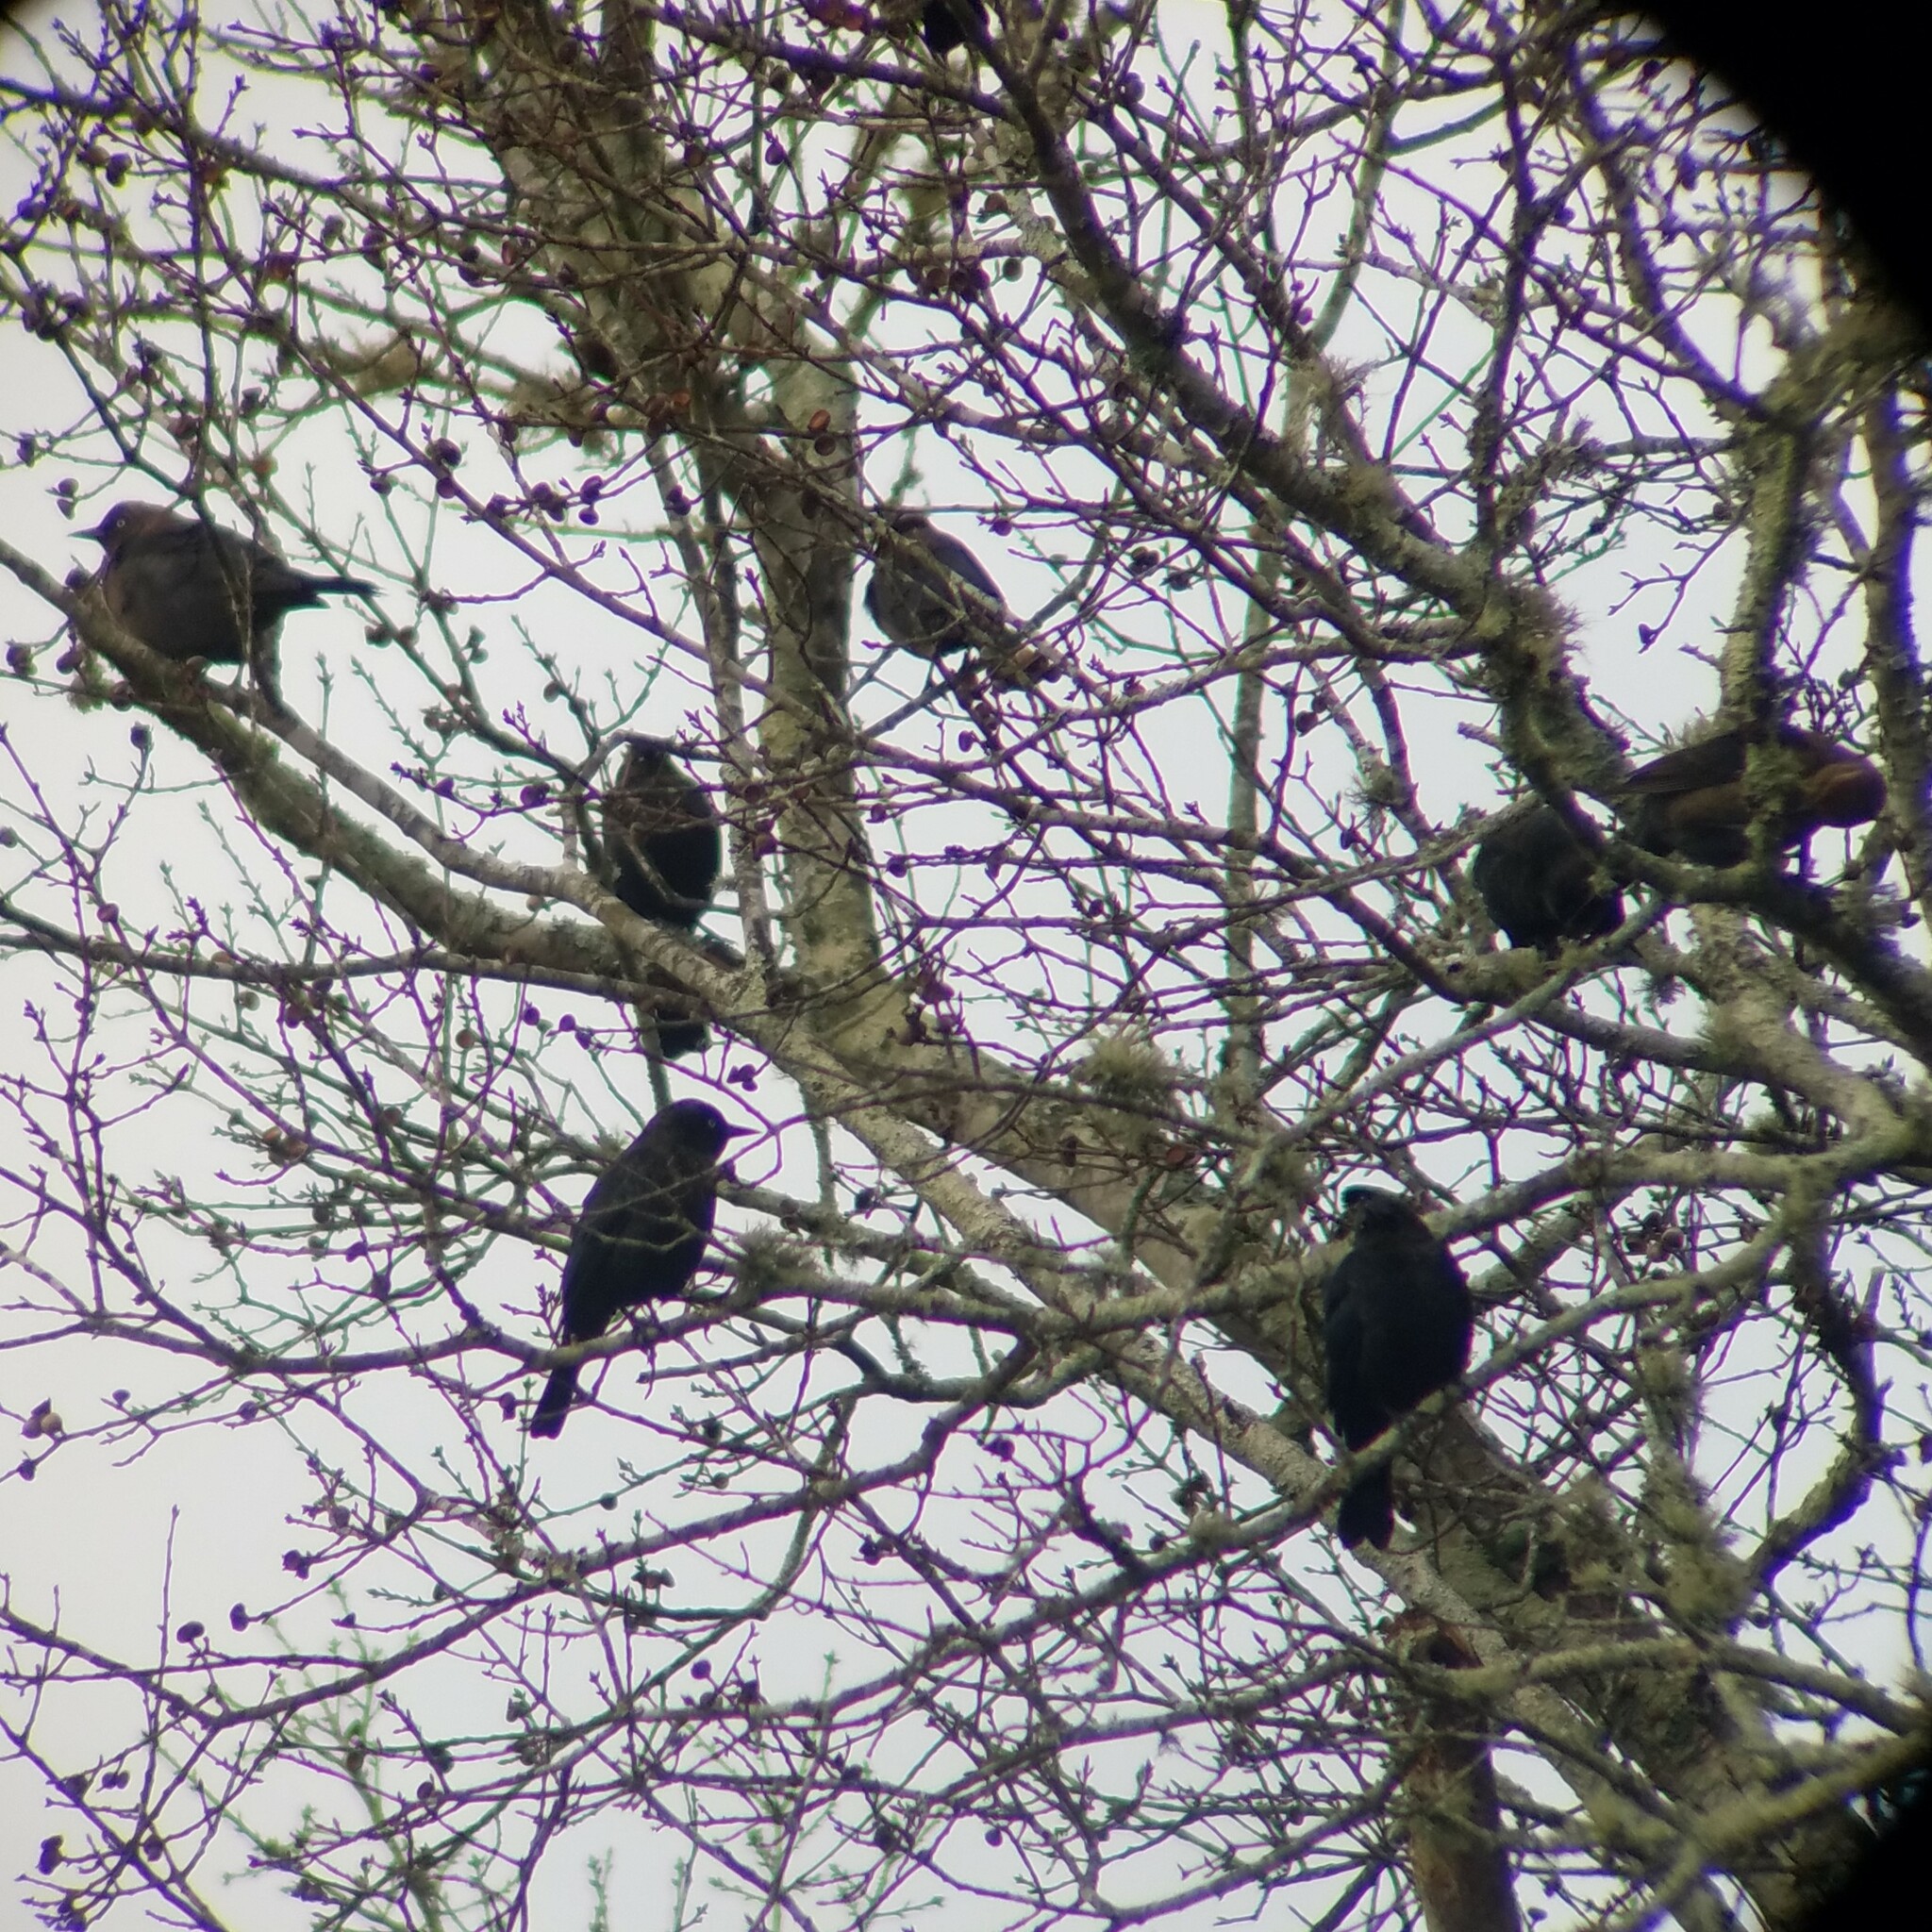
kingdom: Animalia
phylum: Chordata
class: Aves
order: Passeriformes
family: Icteridae
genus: Euphagus
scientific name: Euphagus carolinus
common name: Rusty blackbird
